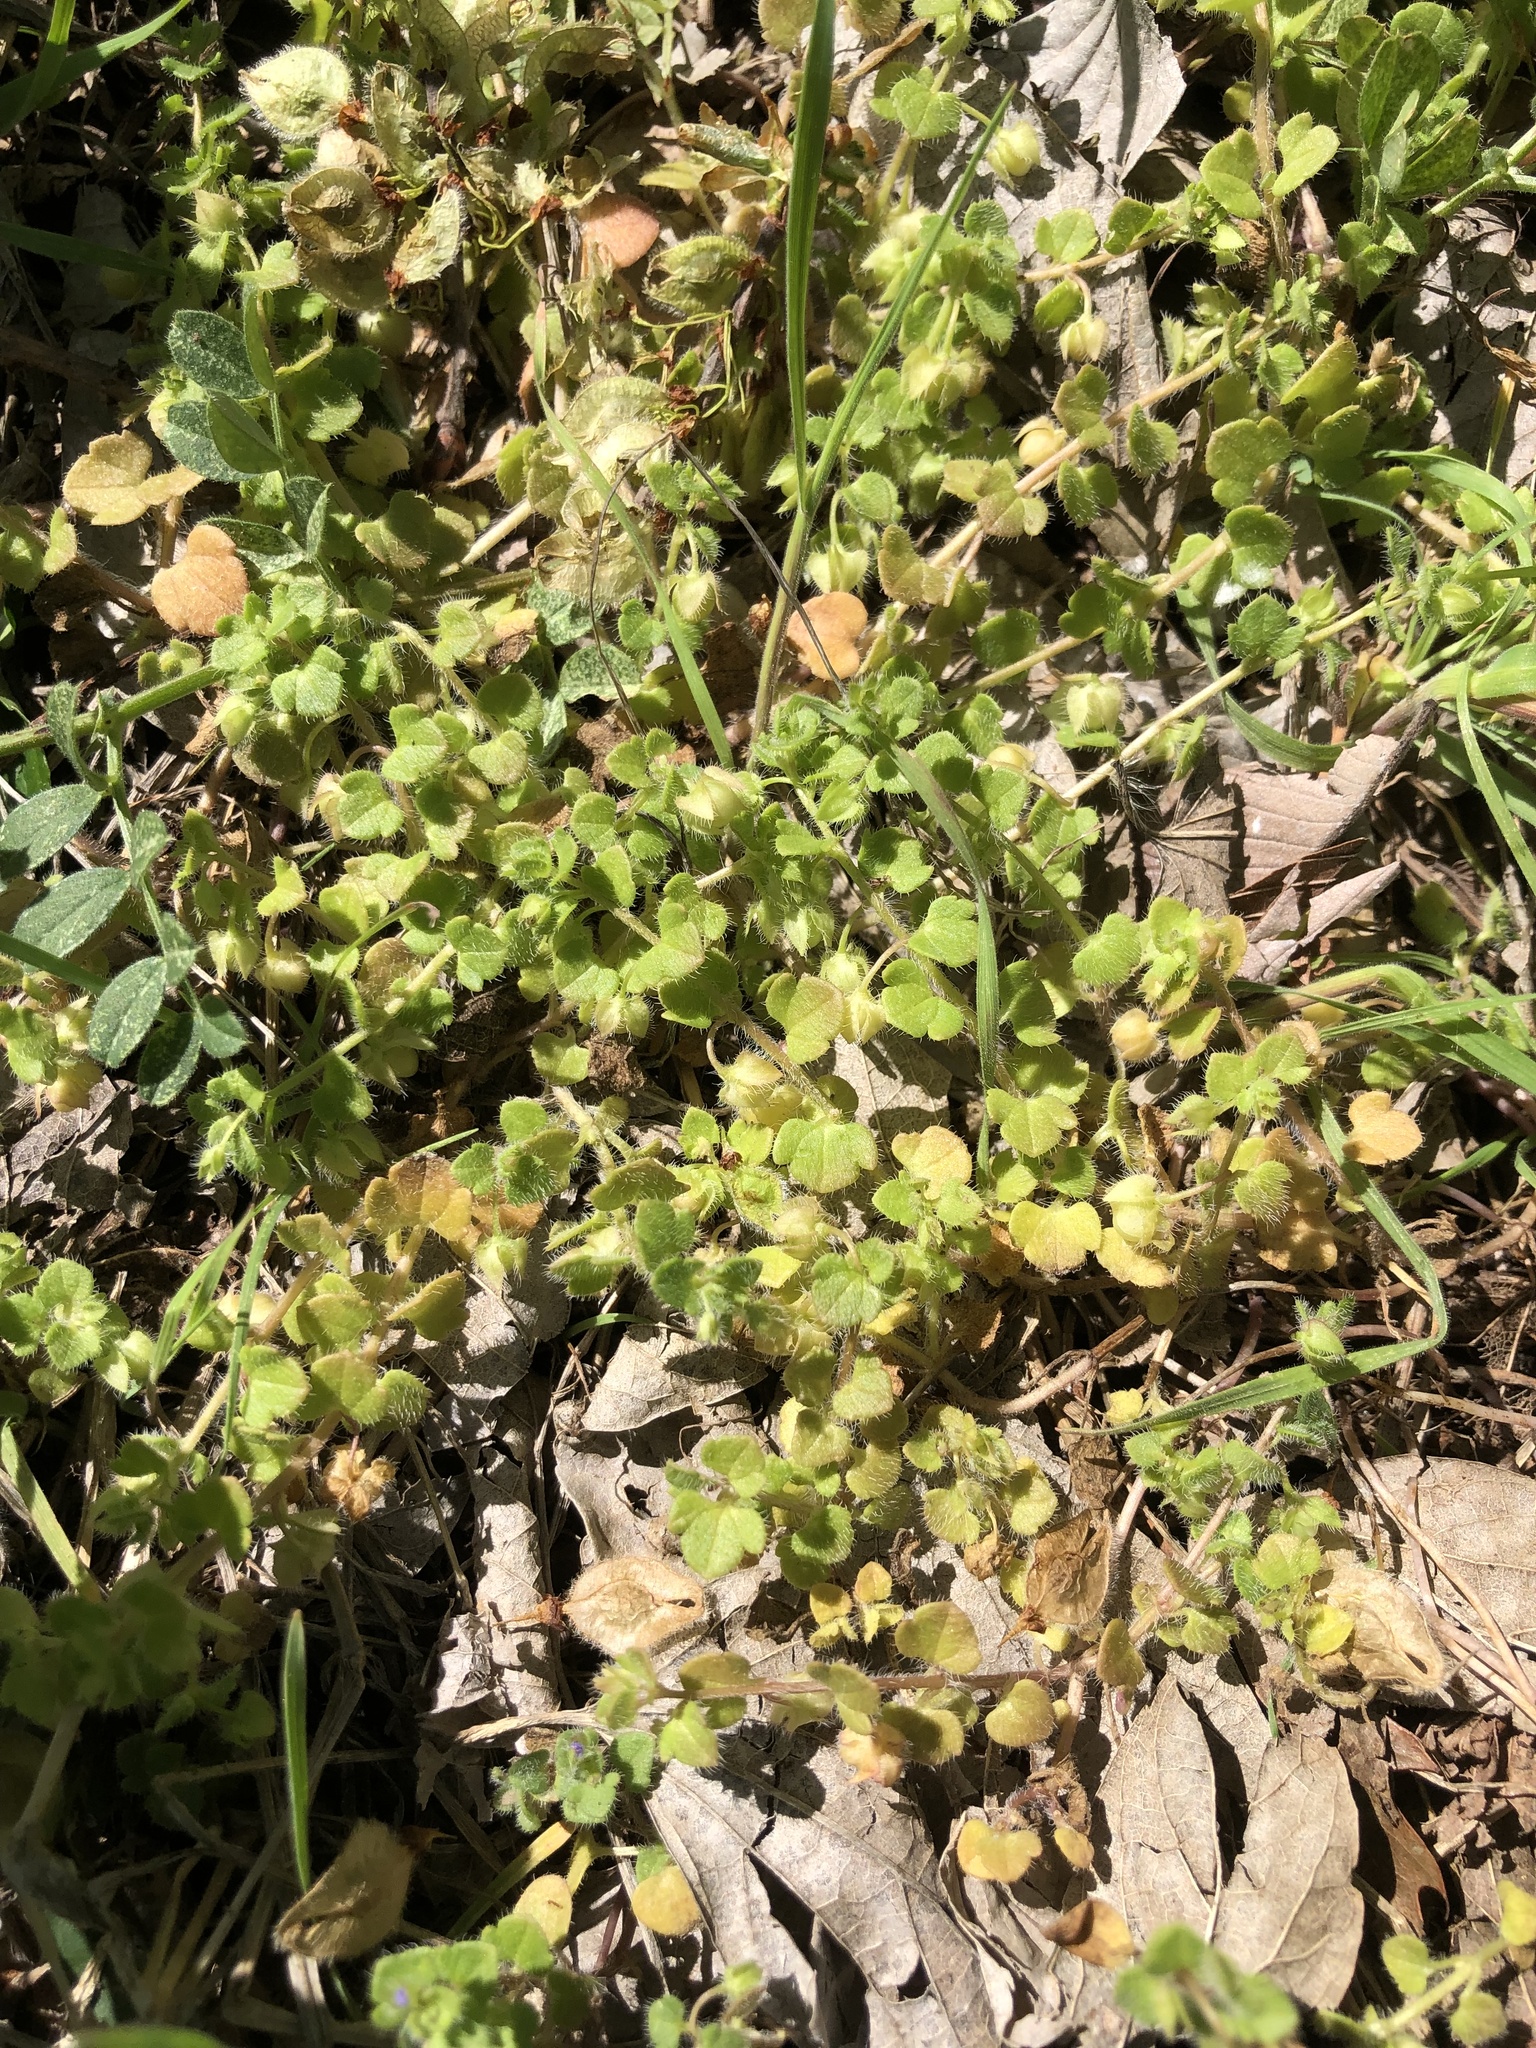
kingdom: Plantae
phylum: Tracheophyta
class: Magnoliopsida
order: Lamiales
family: Plantaginaceae
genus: Veronica
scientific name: Veronica hederifolia
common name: Ivy-leaved speedwell
